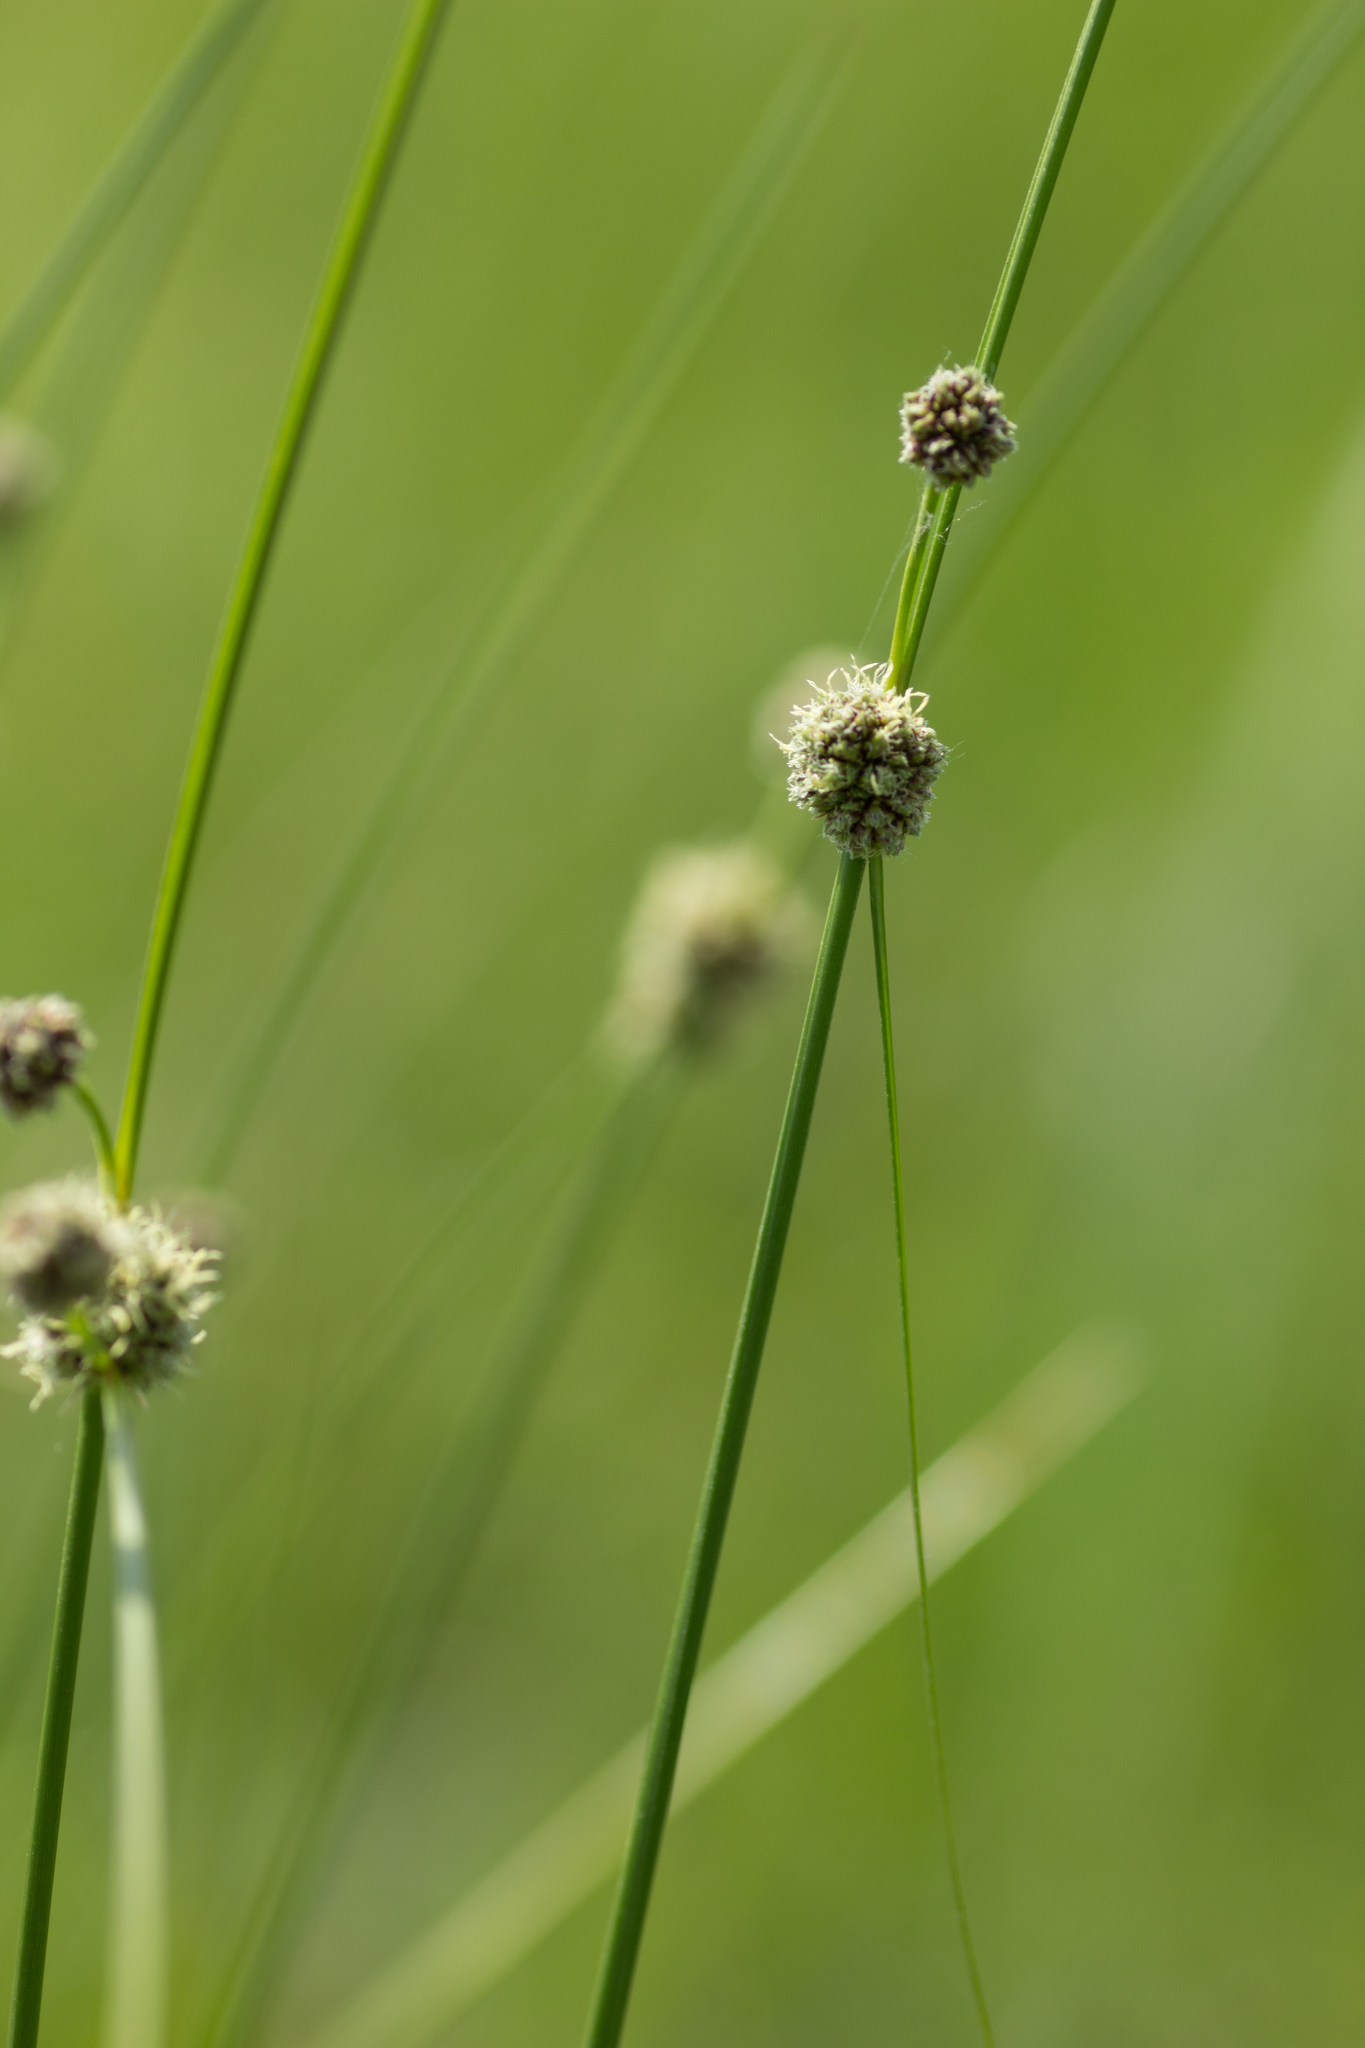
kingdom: Plantae
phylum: Tracheophyta
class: Liliopsida
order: Poales
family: Cyperaceae
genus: Scirpoides
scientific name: Scirpoides holoschoenus
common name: Round-headed club-rush
